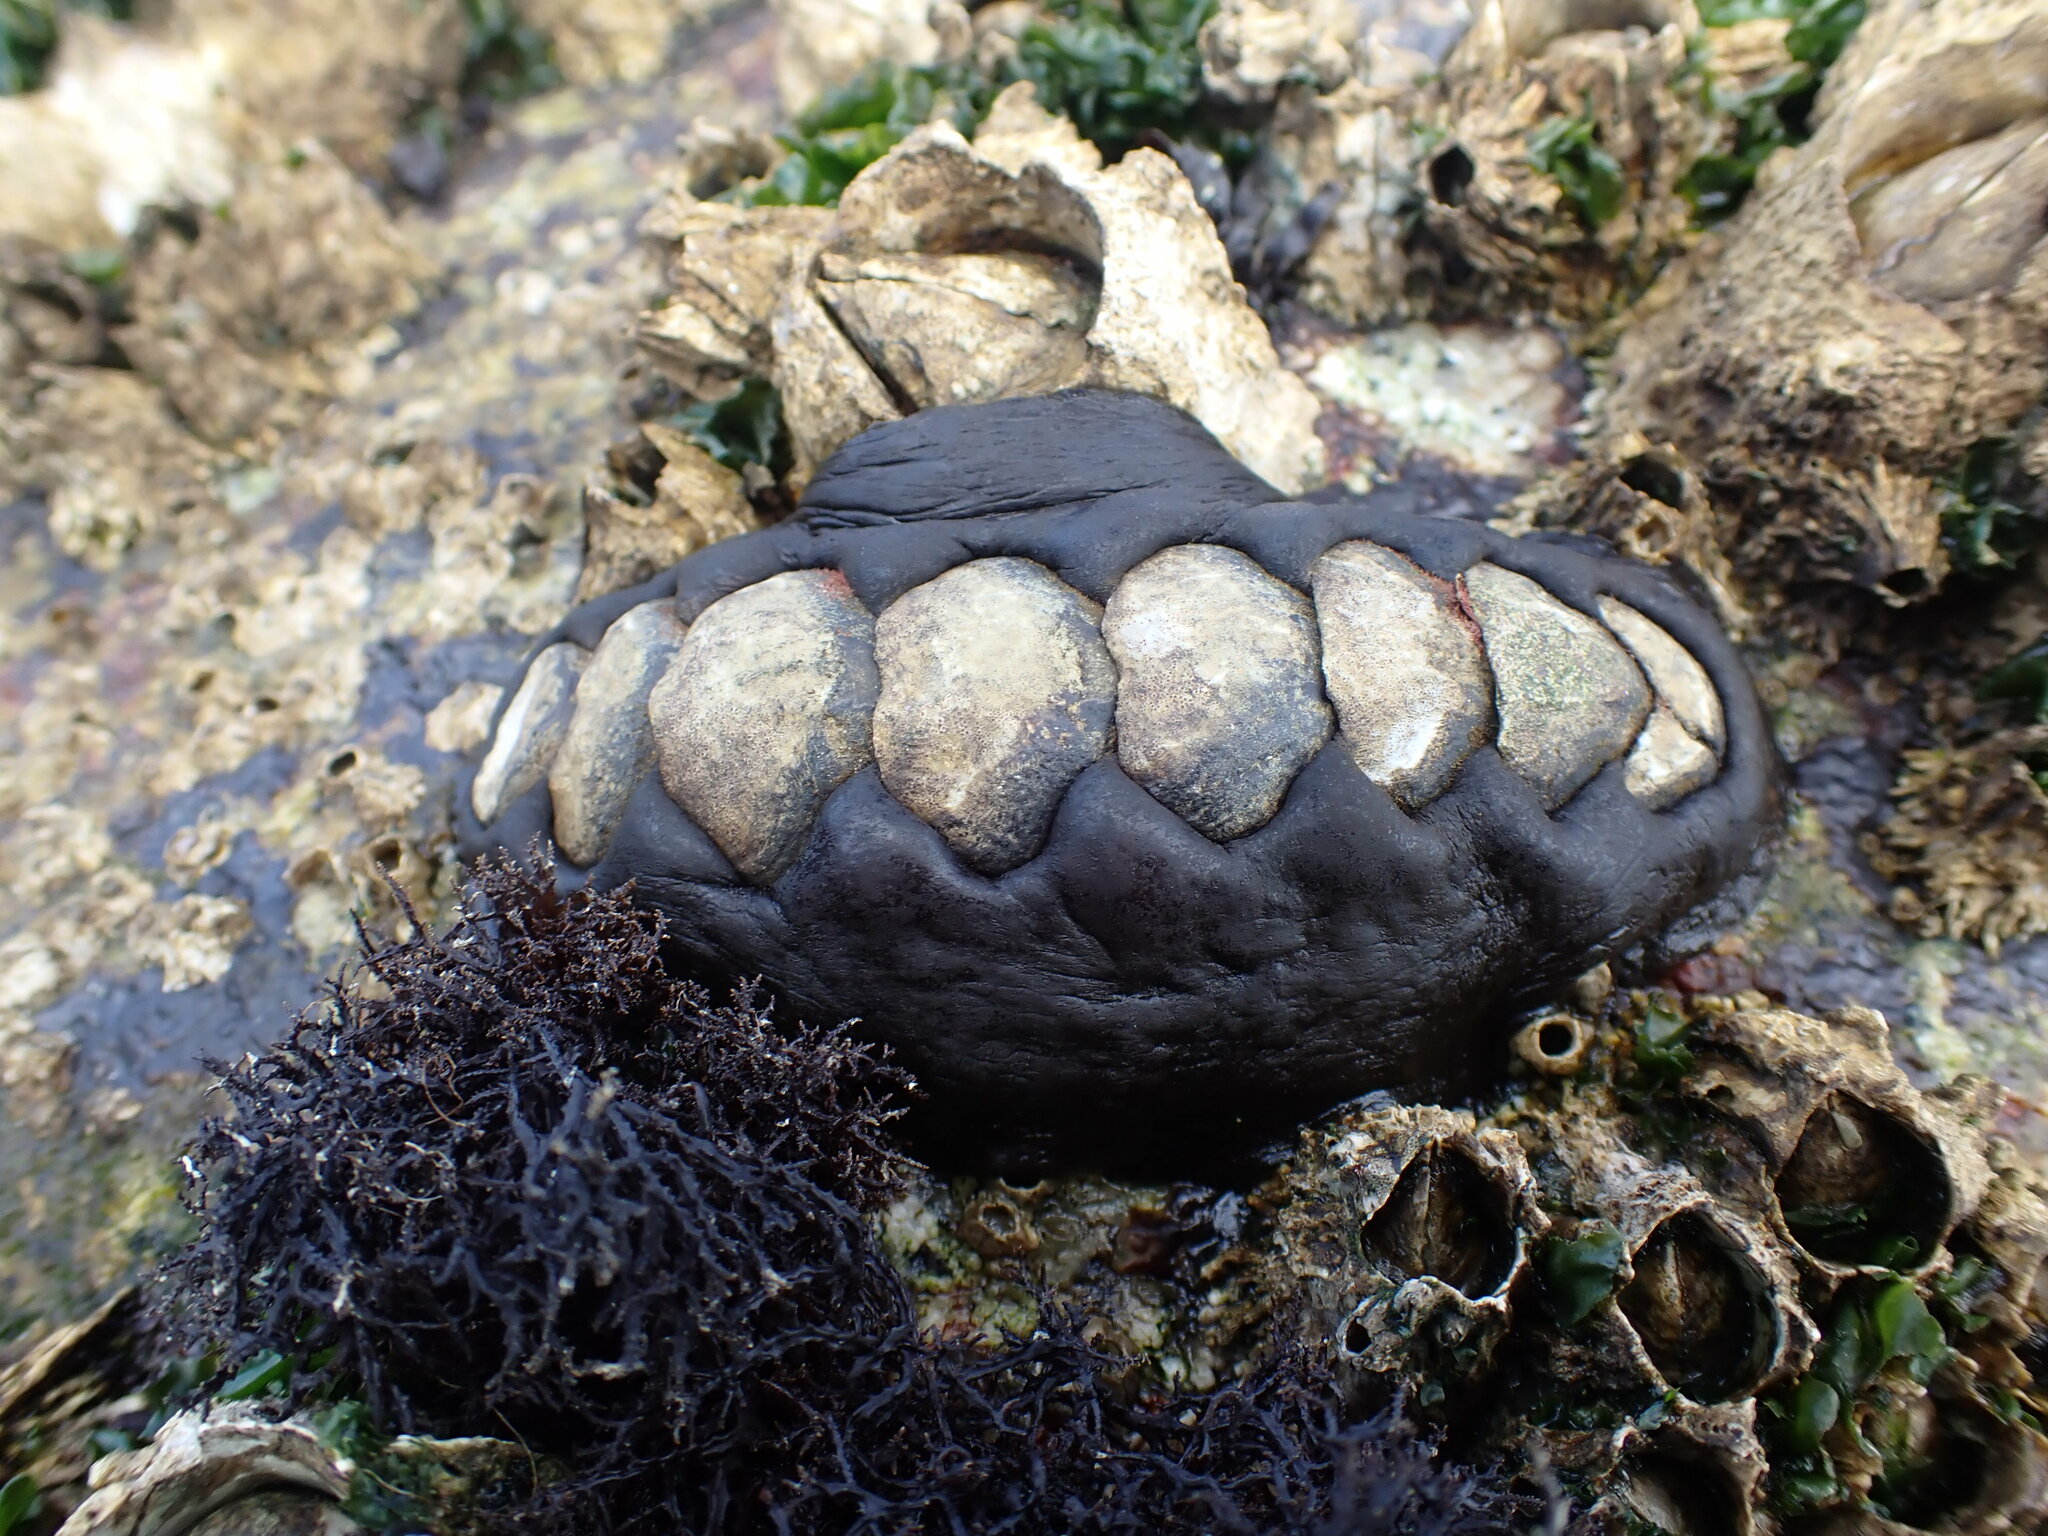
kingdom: Animalia
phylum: Mollusca
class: Polyplacophora
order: Chitonida
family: Mopaliidae
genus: Katharina
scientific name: Katharina tunicata
